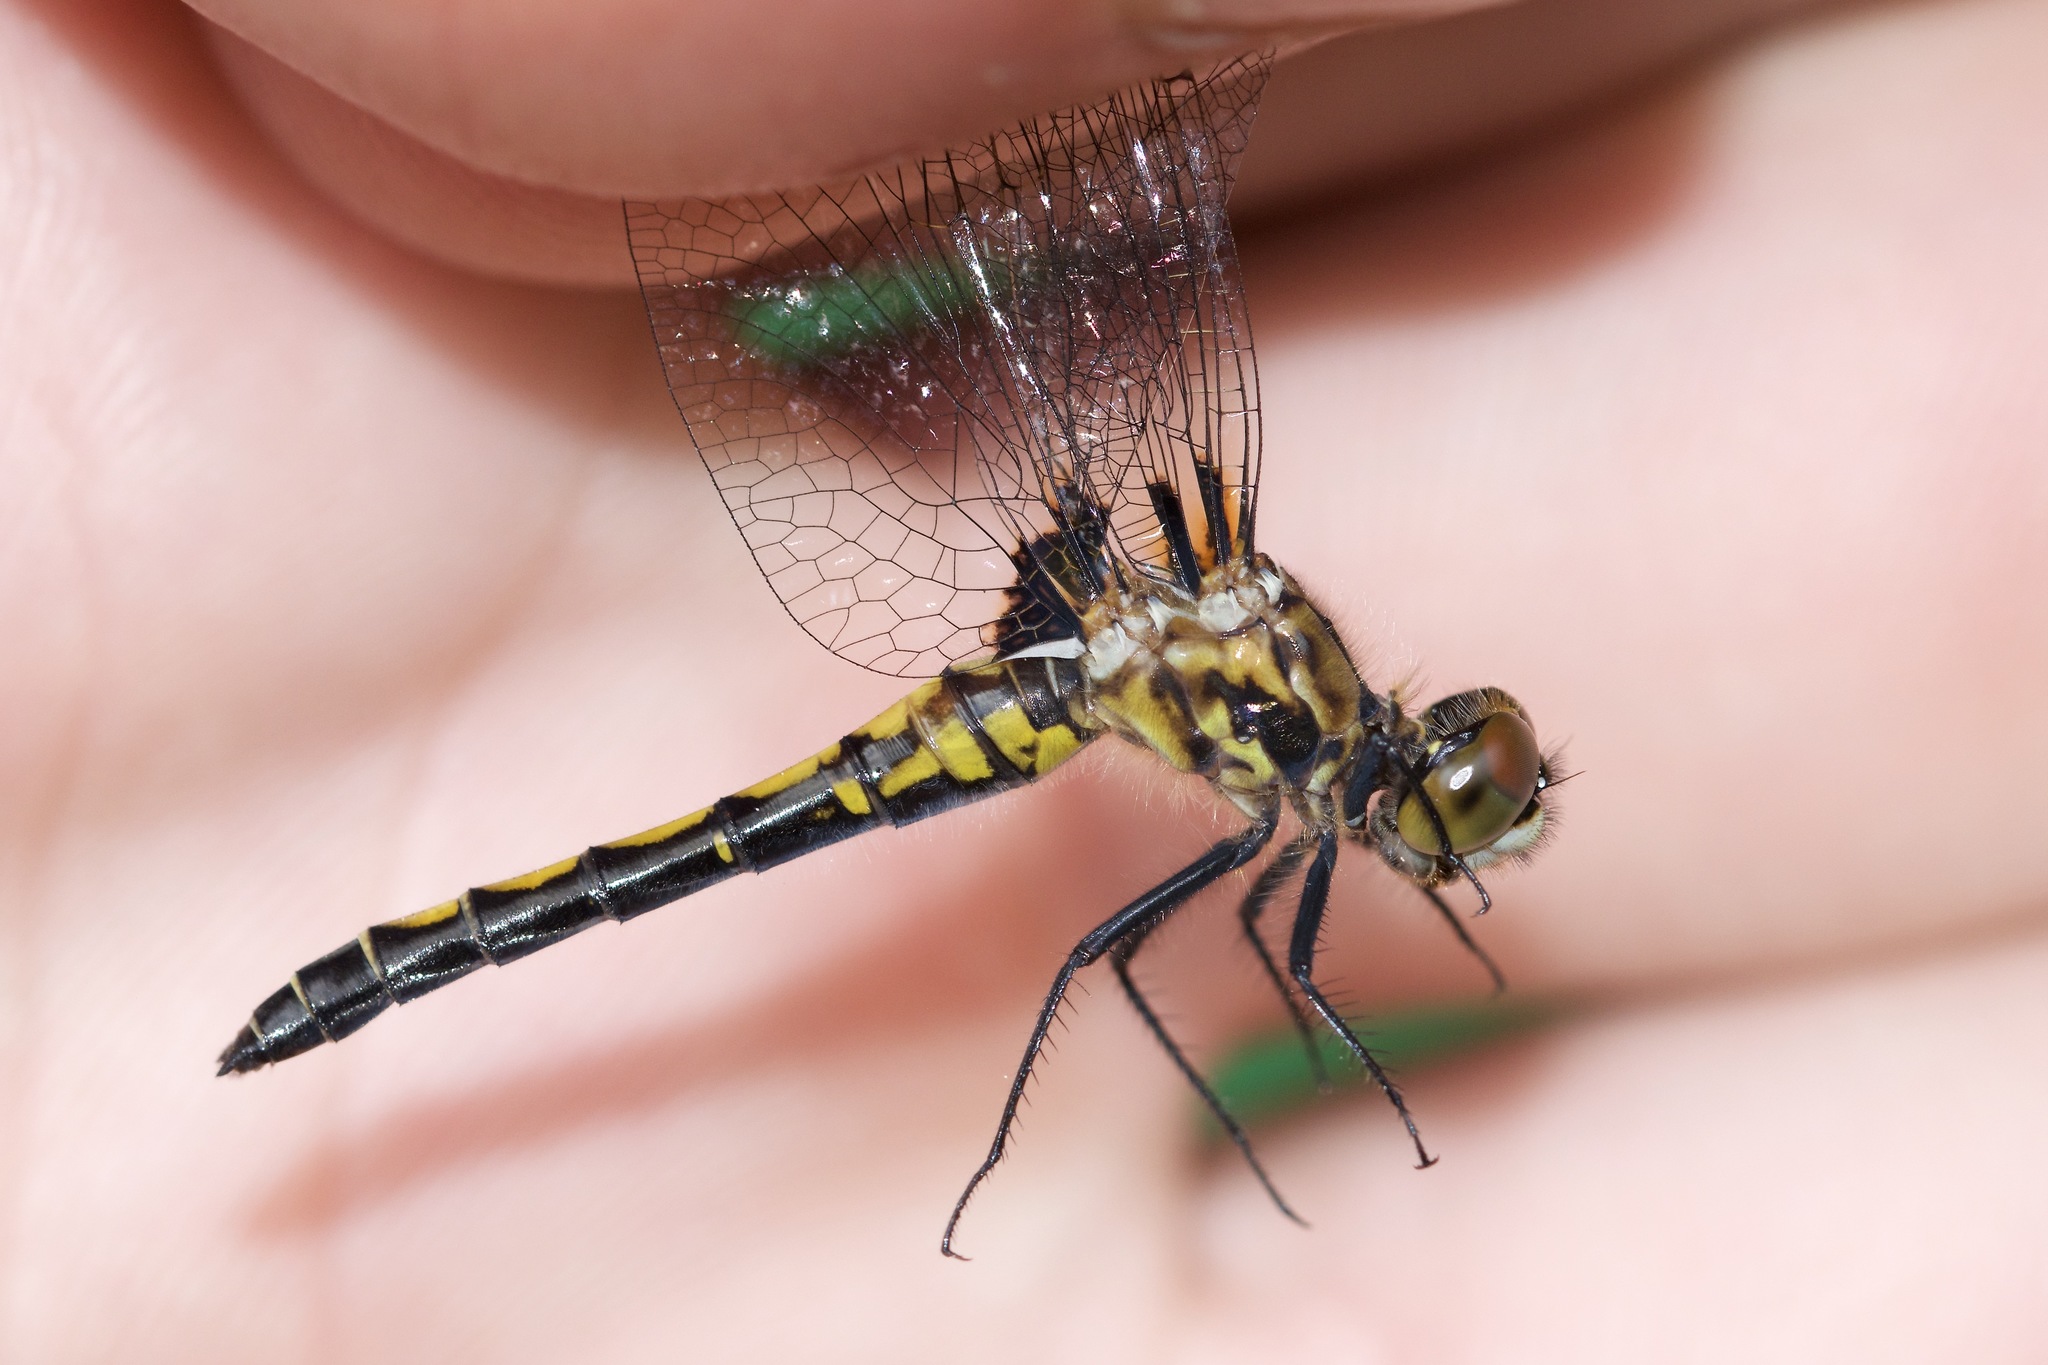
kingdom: Animalia
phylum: Arthropoda
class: Insecta
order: Odonata
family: Libellulidae
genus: Leucorrhinia
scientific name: Leucorrhinia hudsonica
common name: Hudsonian whiteface
